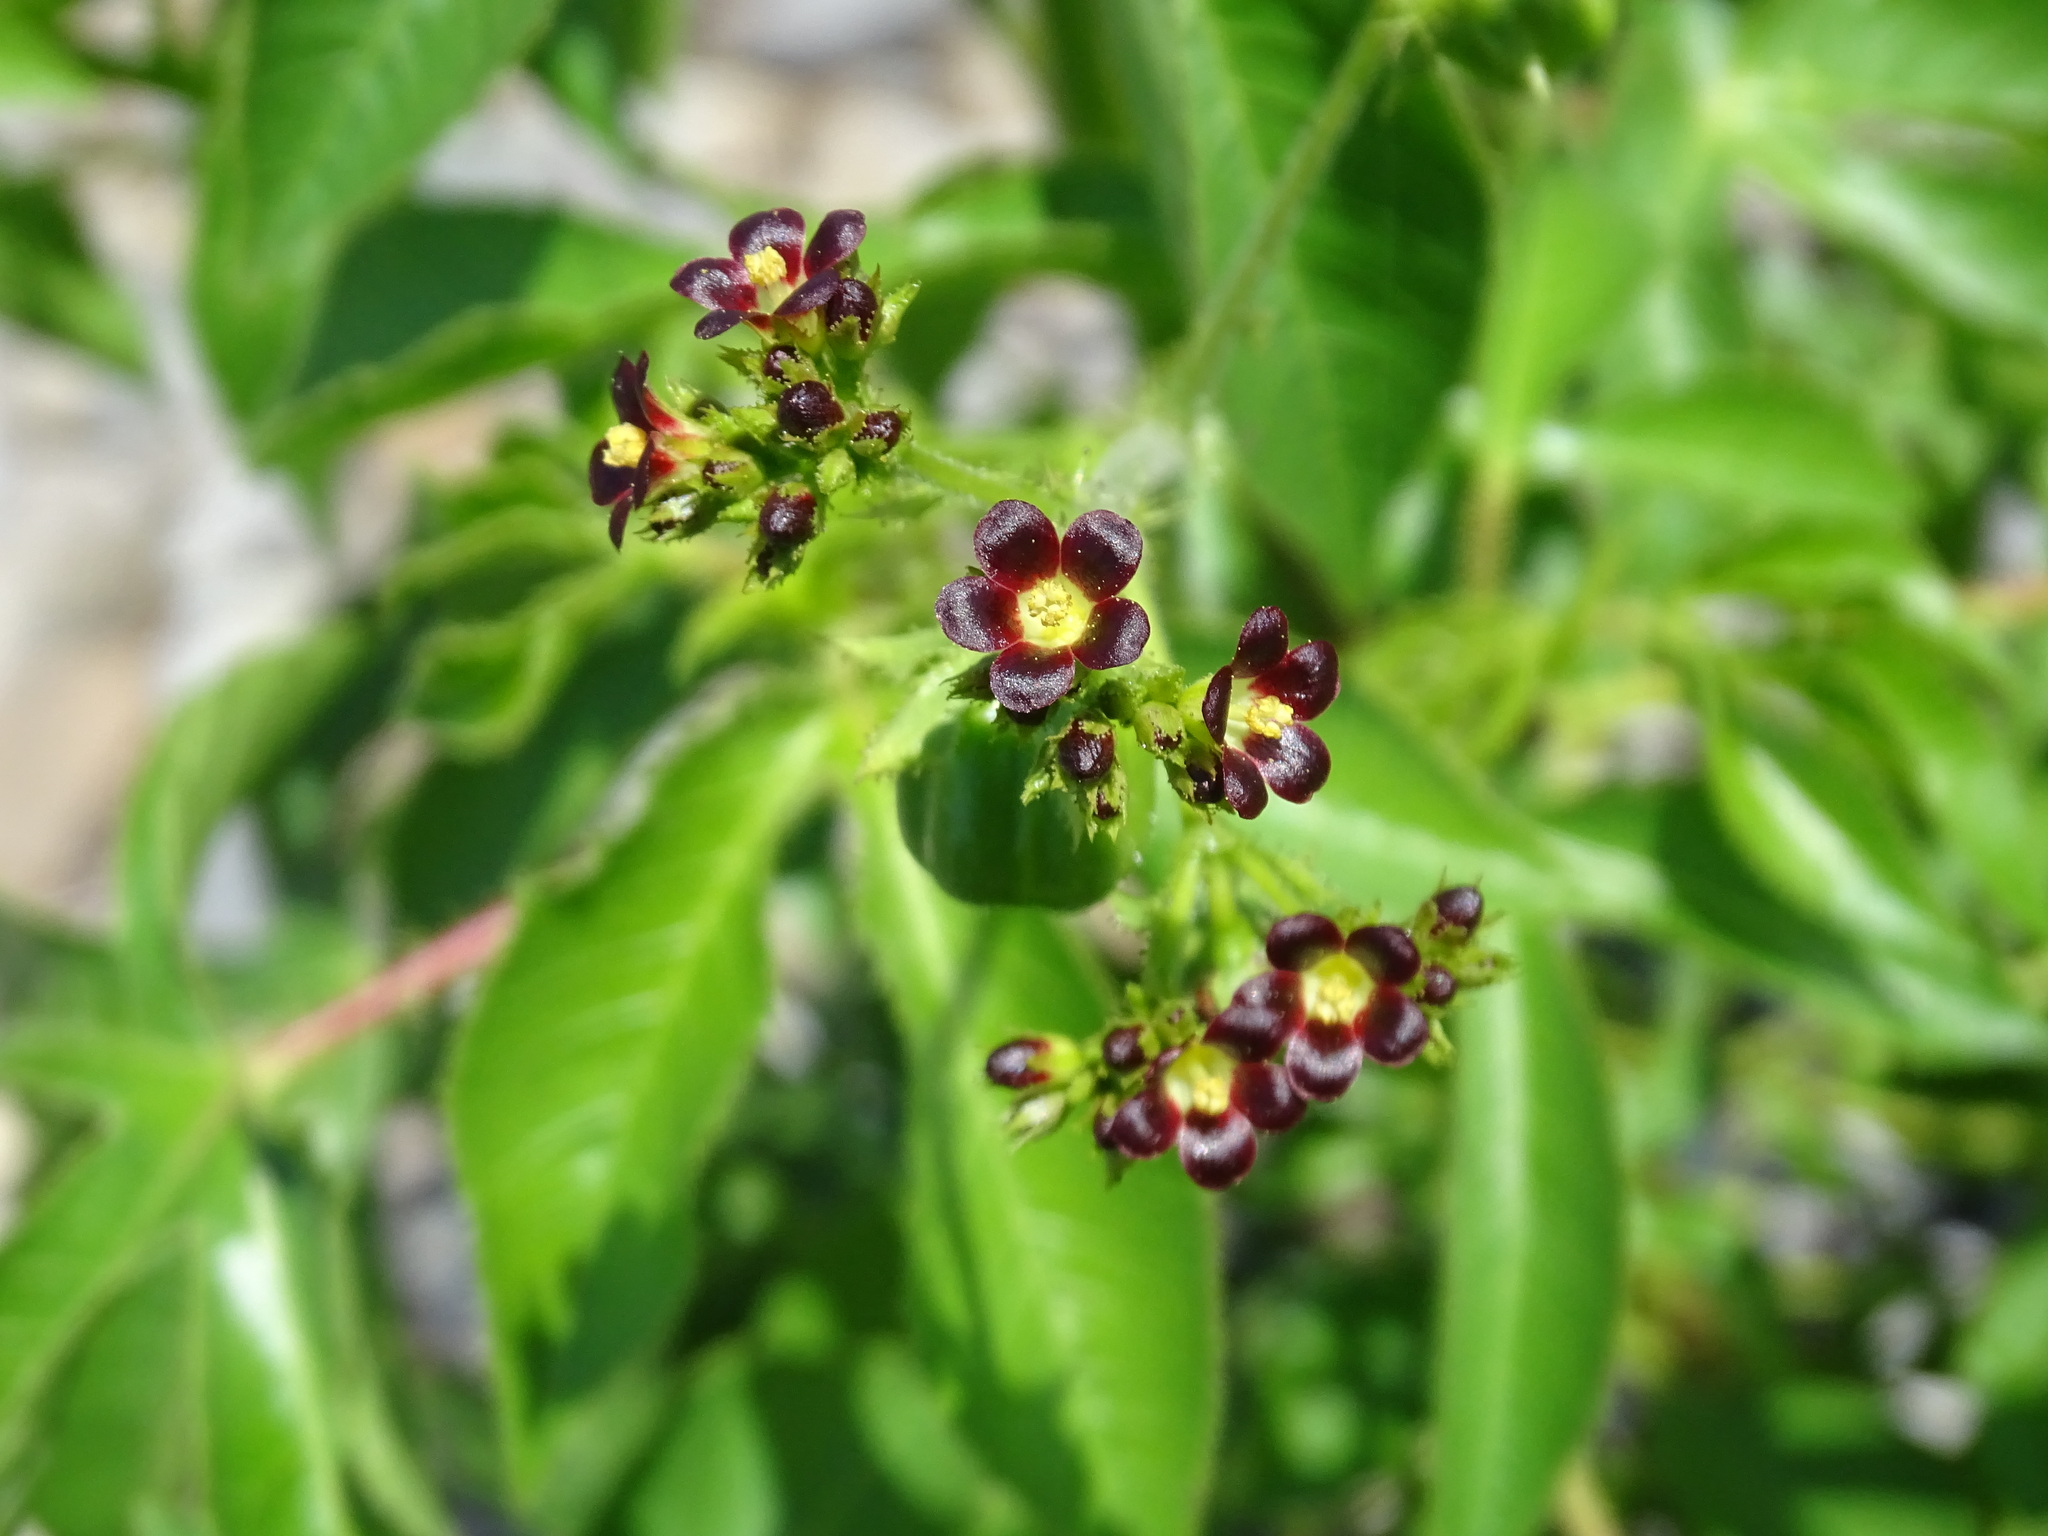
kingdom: Plantae
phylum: Tracheophyta
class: Magnoliopsida
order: Malpighiales
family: Euphorbiaceae
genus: Jatropha
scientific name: Jatropha gossypiifolia
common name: Bellyache bush
